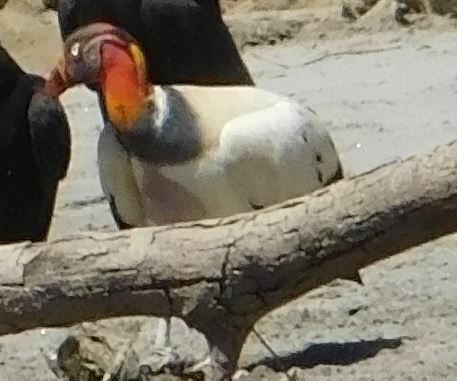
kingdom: Animalia
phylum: Chordata
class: Aves
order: Accipitriformes
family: Cathartidae
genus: Sarcoramphus
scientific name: Sarcoramphus papa
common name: King vulture
